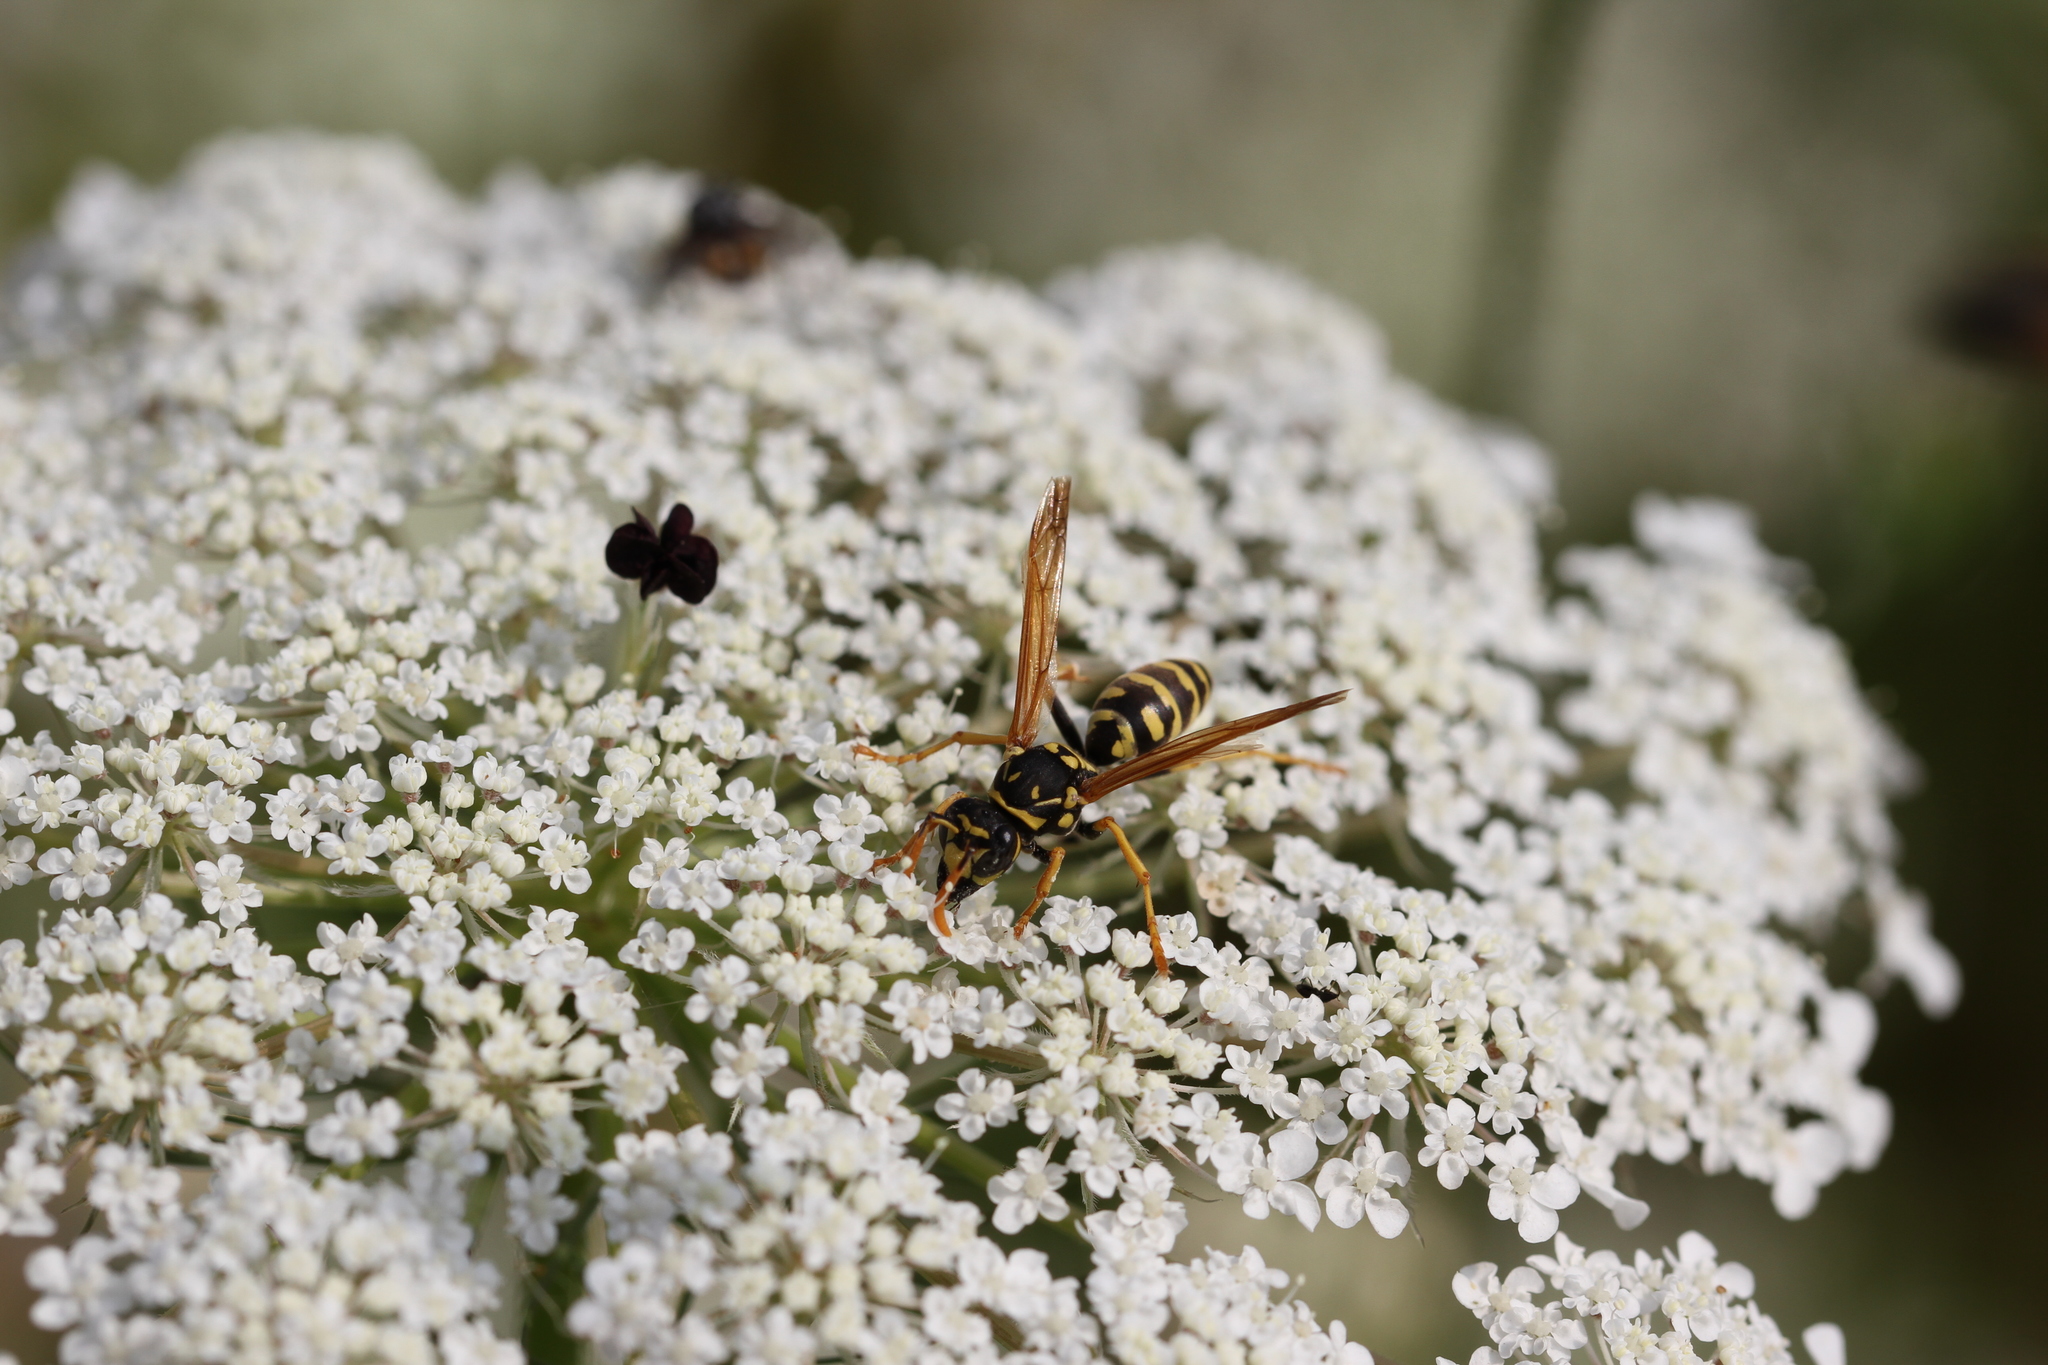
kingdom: Animalia
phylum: Arthropoda
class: Insecta
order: Hymenoptera
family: Eumenidae
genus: Polistes
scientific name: Polistes dominula
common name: Paper wasp
